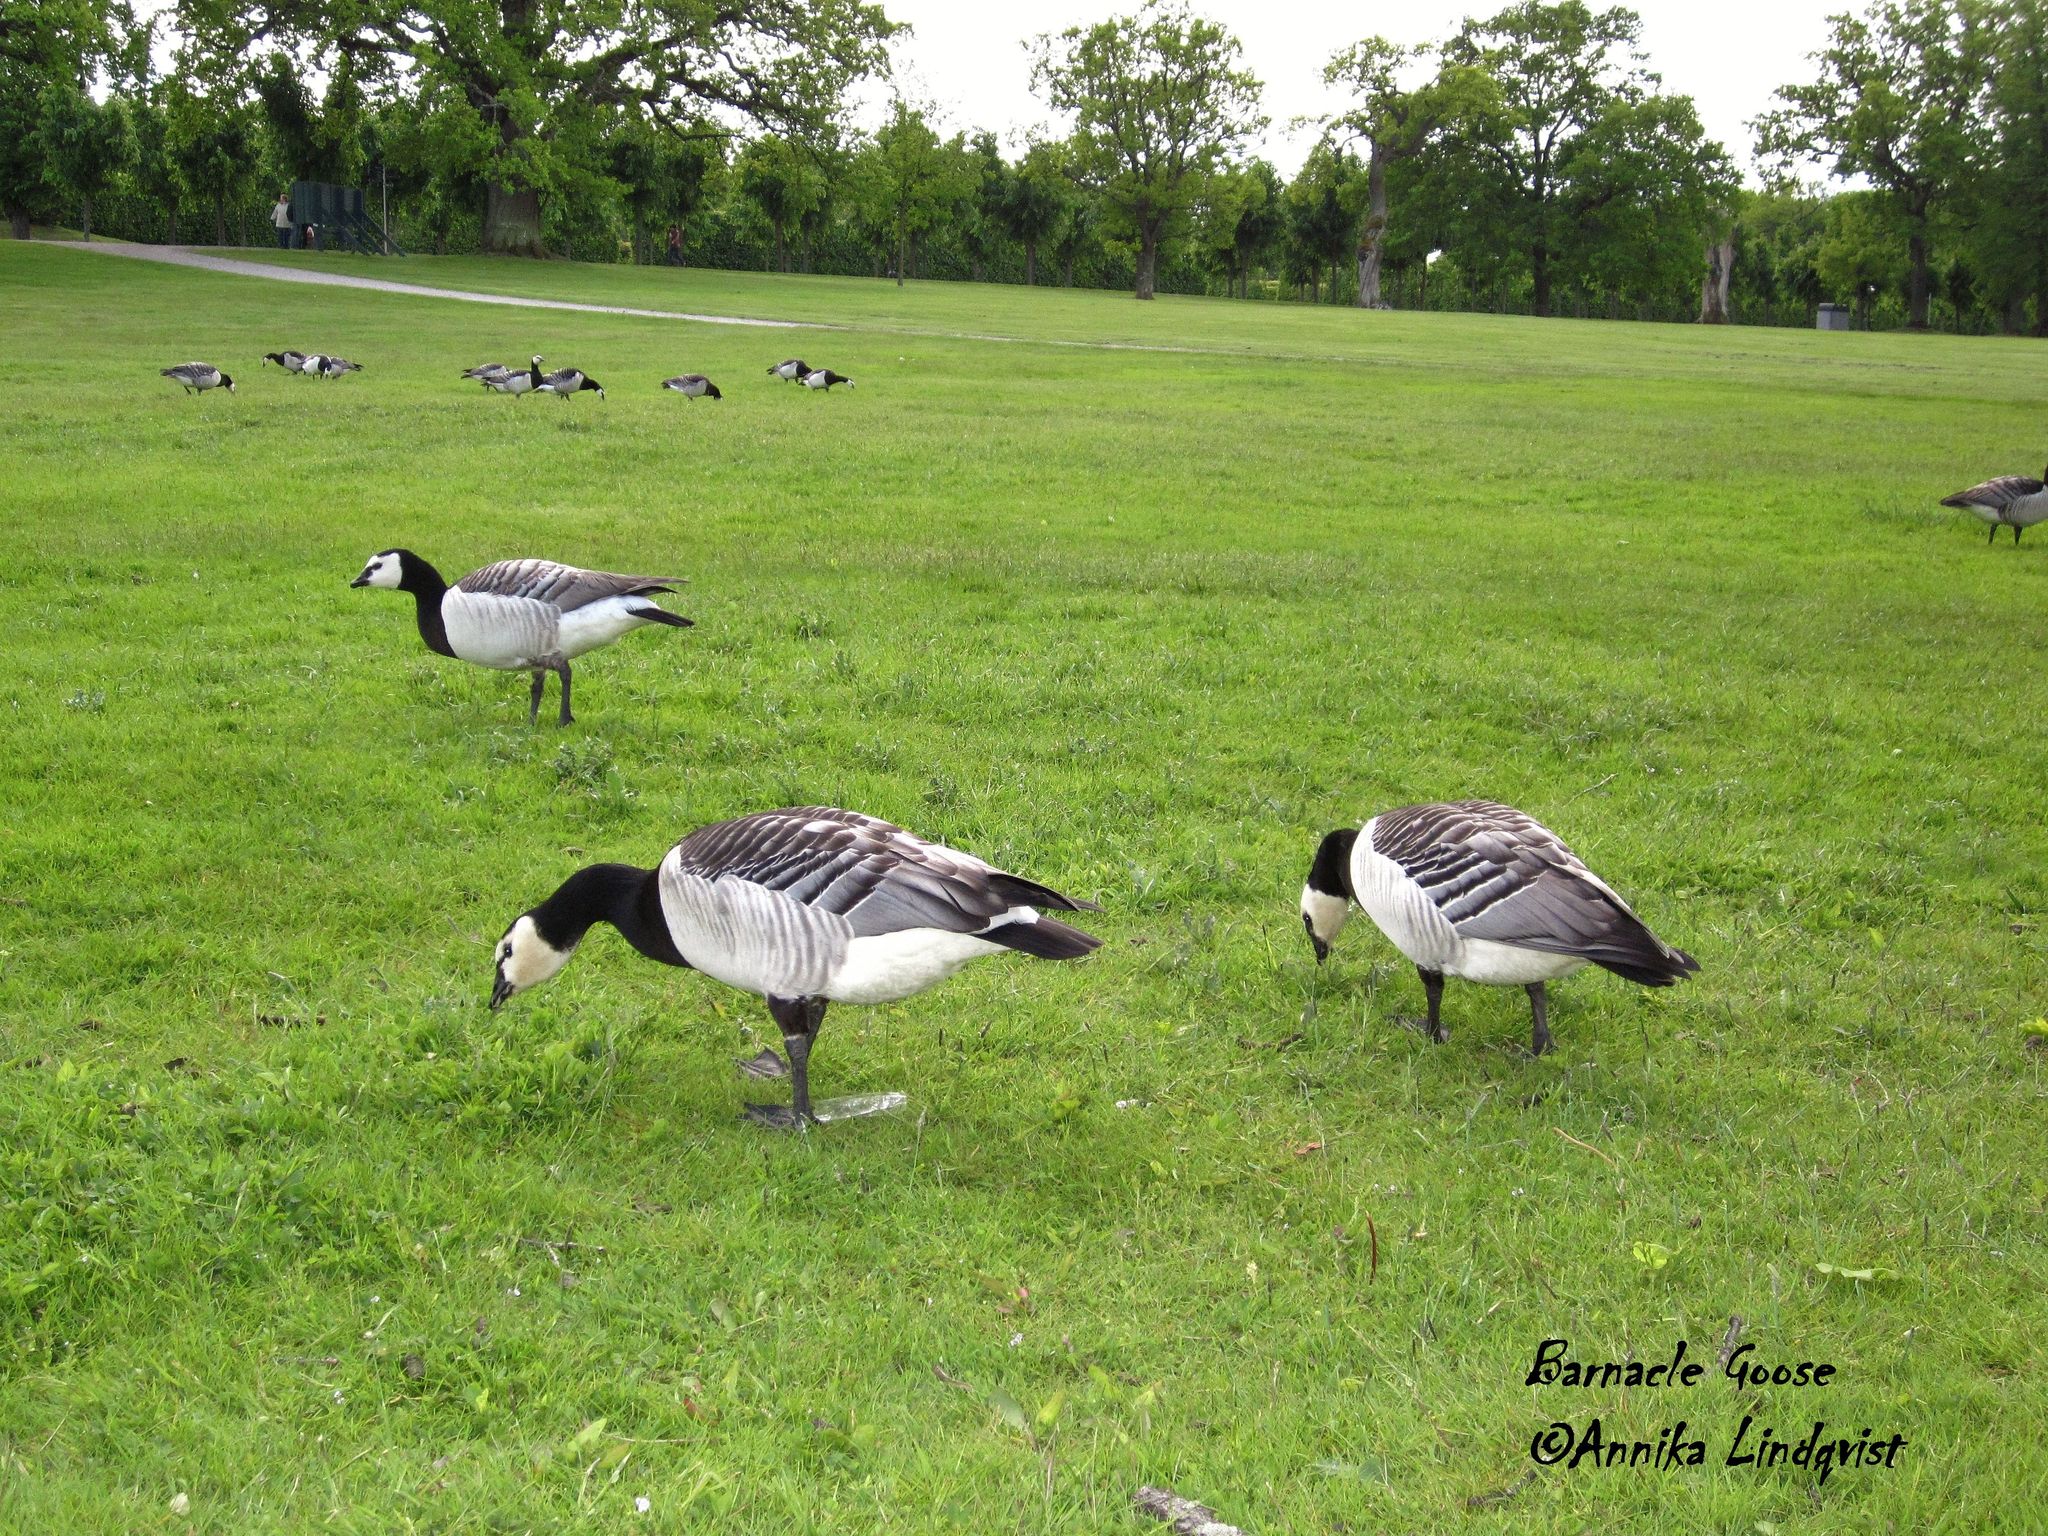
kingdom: Animalia
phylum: Chordata
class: Aves
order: Anseriformes
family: Anatidae
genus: Branta
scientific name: Branta leucopsis
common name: Barnacle goose
